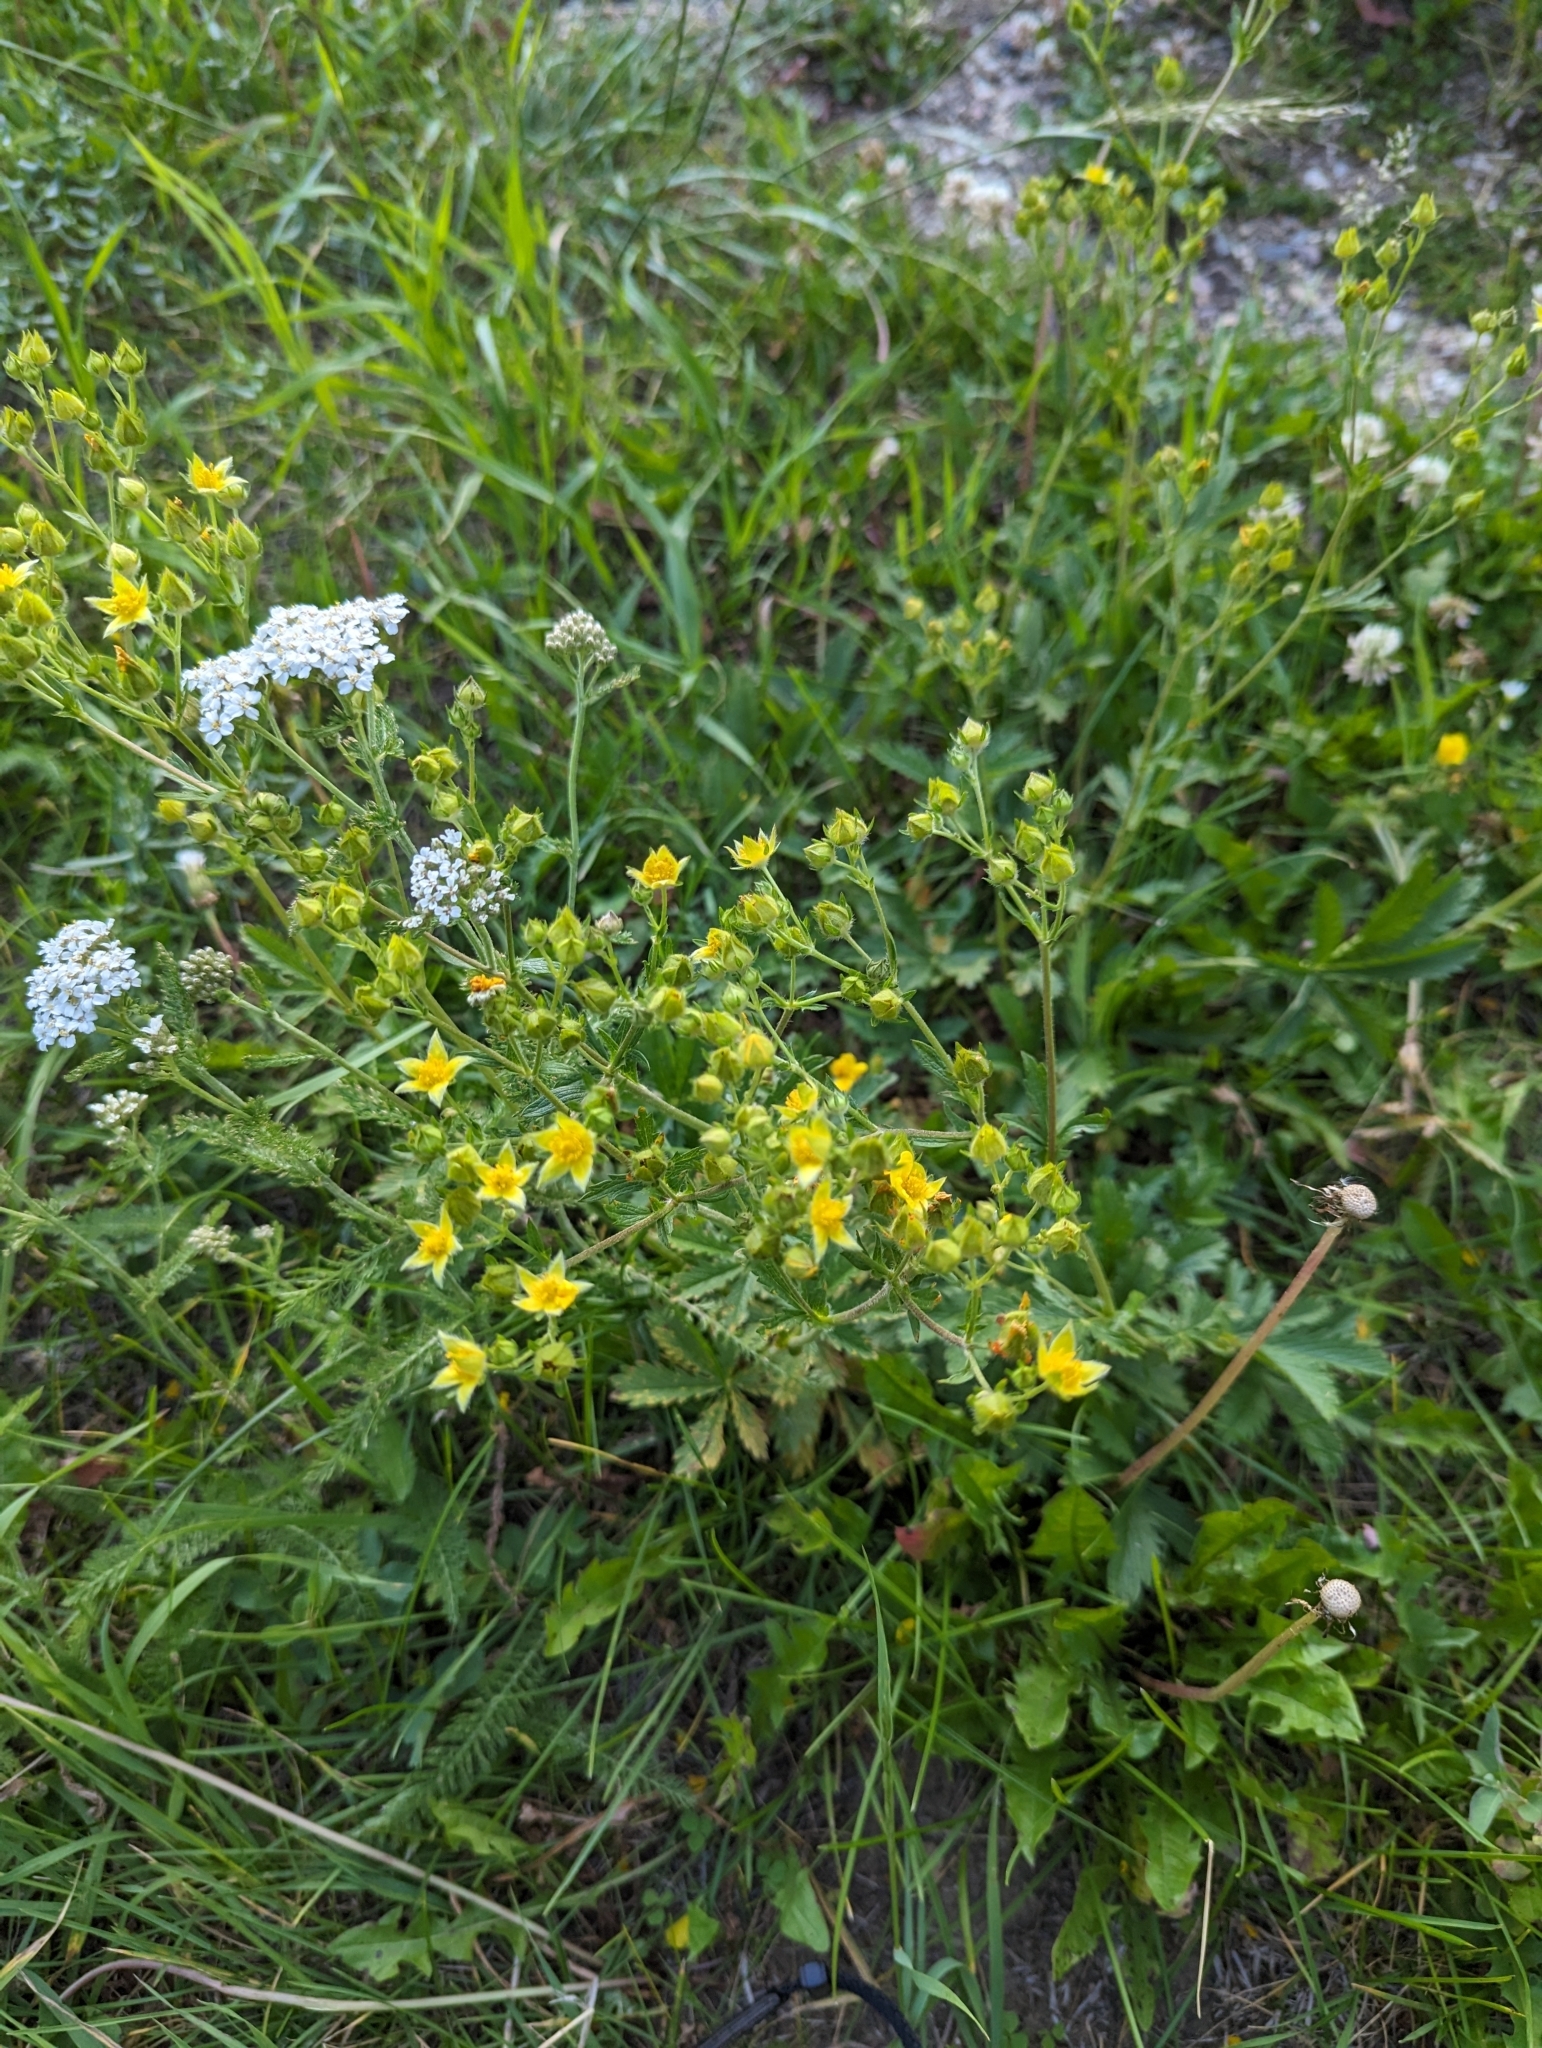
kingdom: Plantae
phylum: Tracheophyta
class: Magnoliopsida
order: Rosales
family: Rosaceae
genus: Potentilla
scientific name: Potentilla gracilis
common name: Graceful cinquefoil
